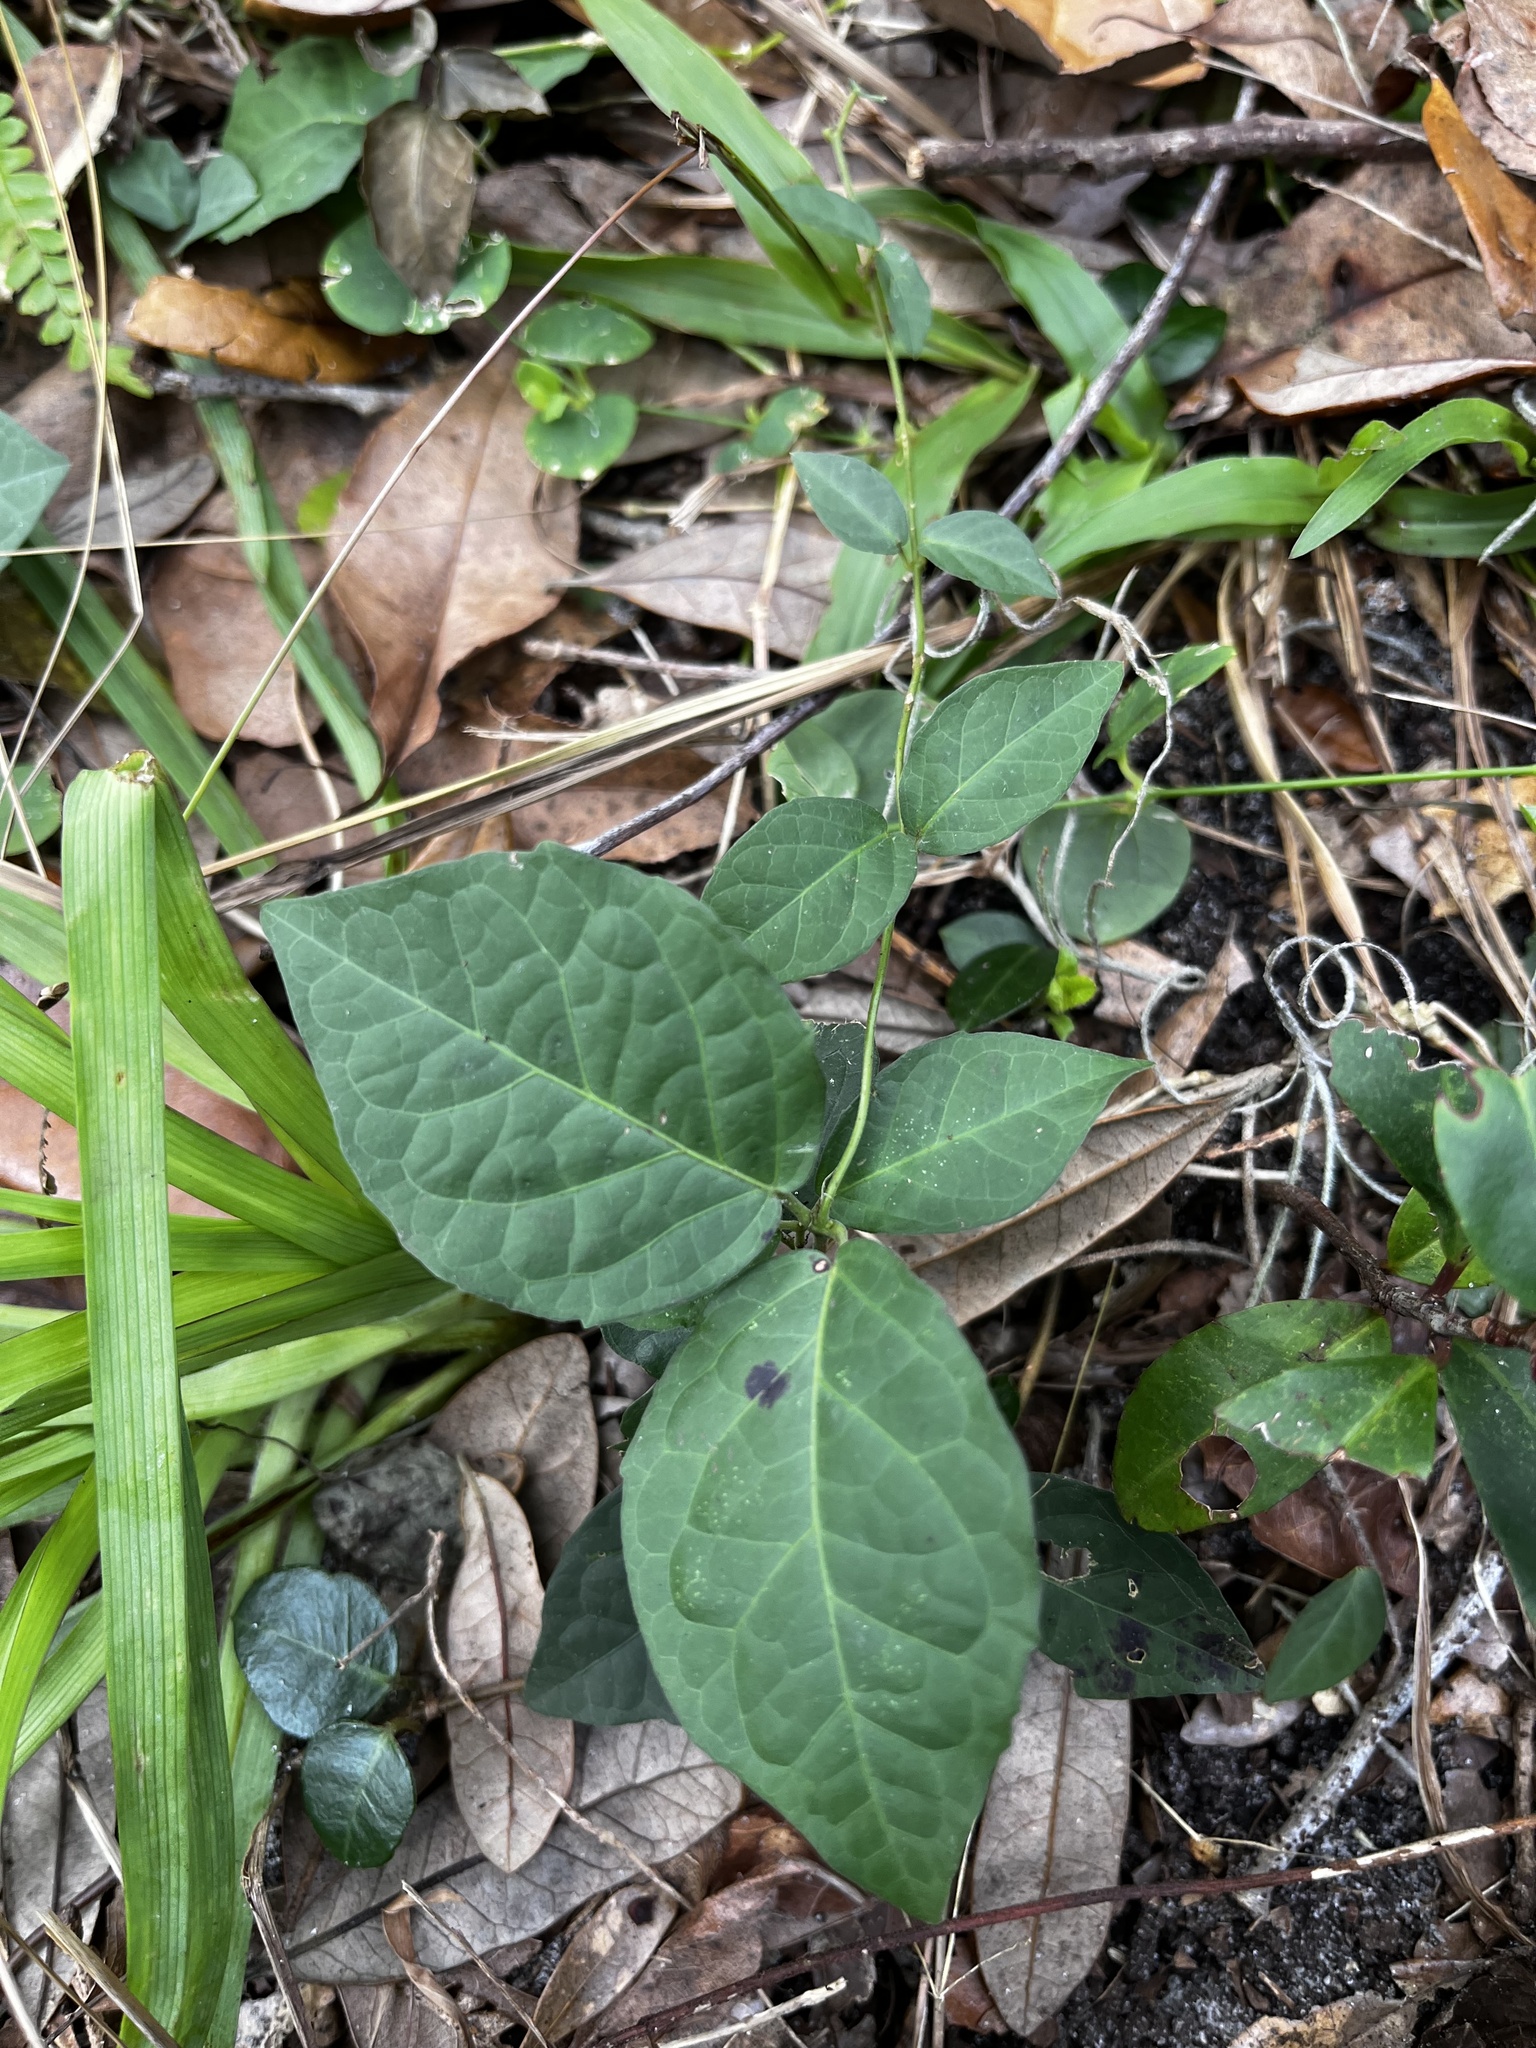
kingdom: Plantae
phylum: Tracheophyta
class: Magnoliopsida
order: Lamiales
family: Bignoniaceae
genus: Dolichandra
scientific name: Dolichandra unguis-cati
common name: Catclaw vine
